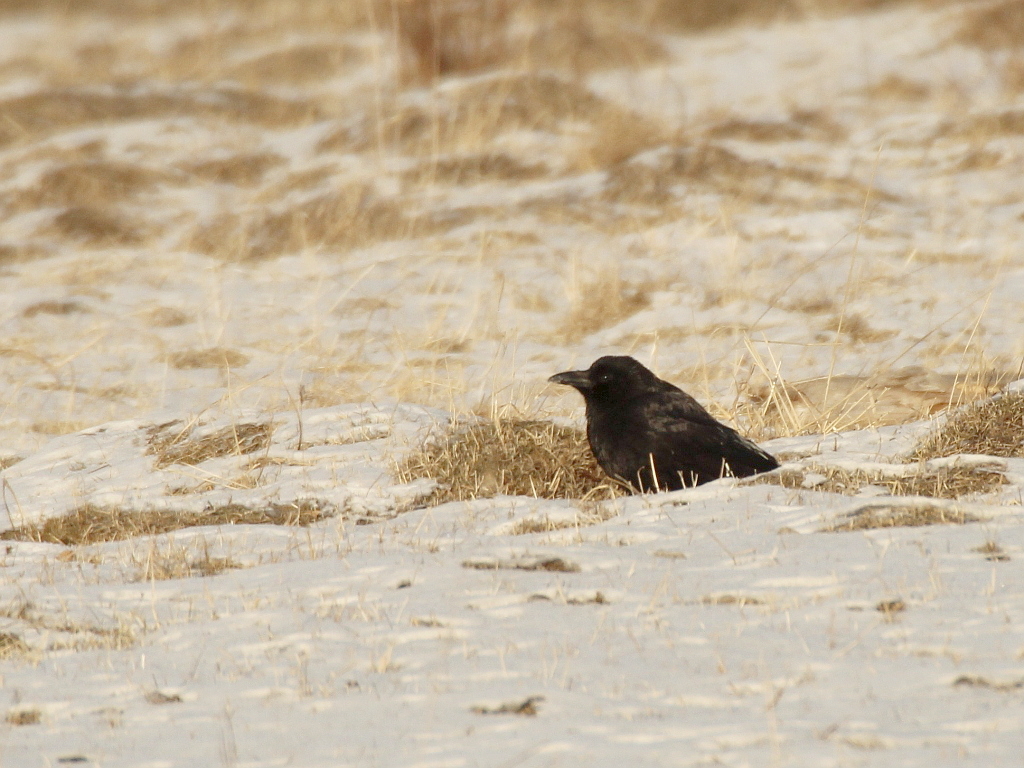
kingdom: Animalia
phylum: Chordata
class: Aves
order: Passeriformes
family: Corvidae
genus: Corvus
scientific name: Corvus corone
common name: Carrion crow
